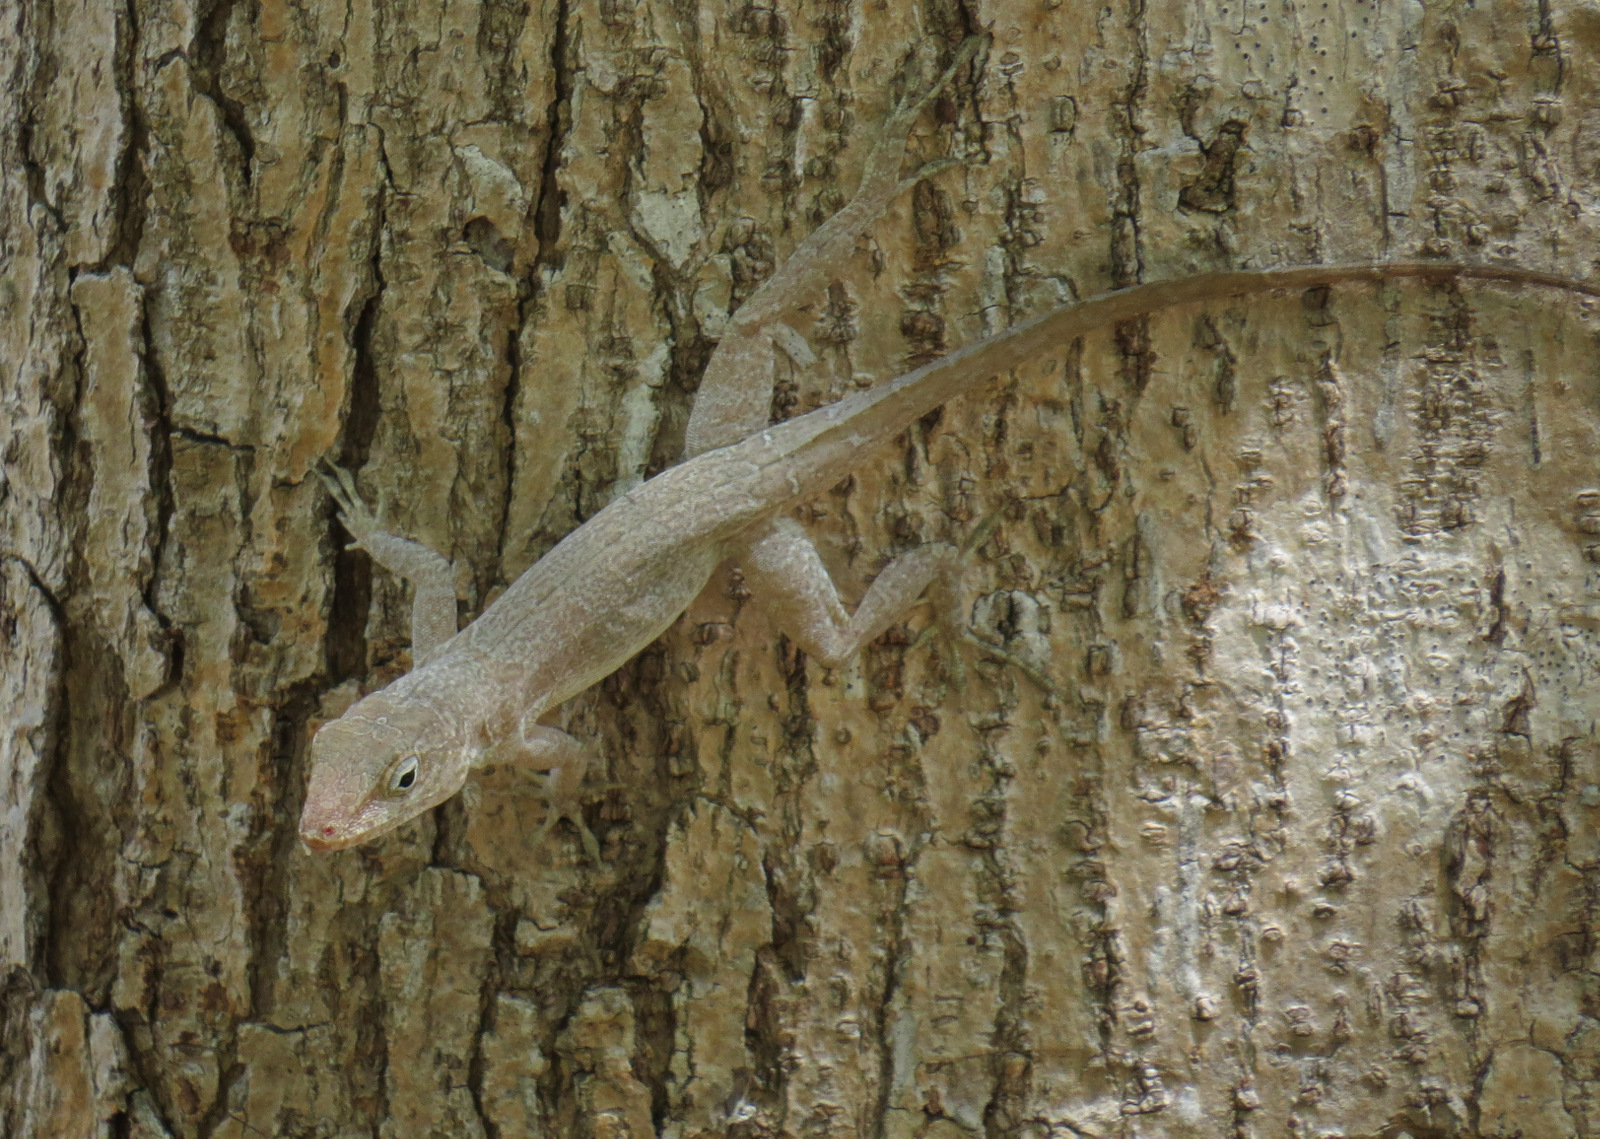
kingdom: Animalia
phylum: Chordata
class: Squamata
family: Dactyloidae
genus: Anolis
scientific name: Anolis cristatellus
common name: Crested anole
